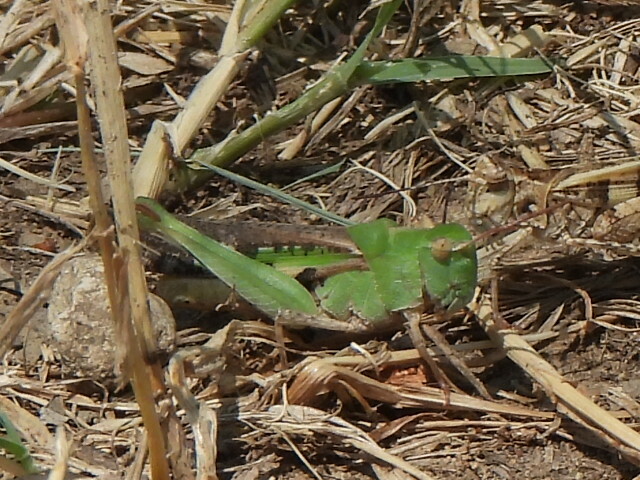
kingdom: Animalia
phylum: Arthropoda
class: Insecta
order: Orthoptera
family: Acrididae
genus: Chortophaga
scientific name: Chortophaga viridifasciata
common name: Green-striped grasshopper
